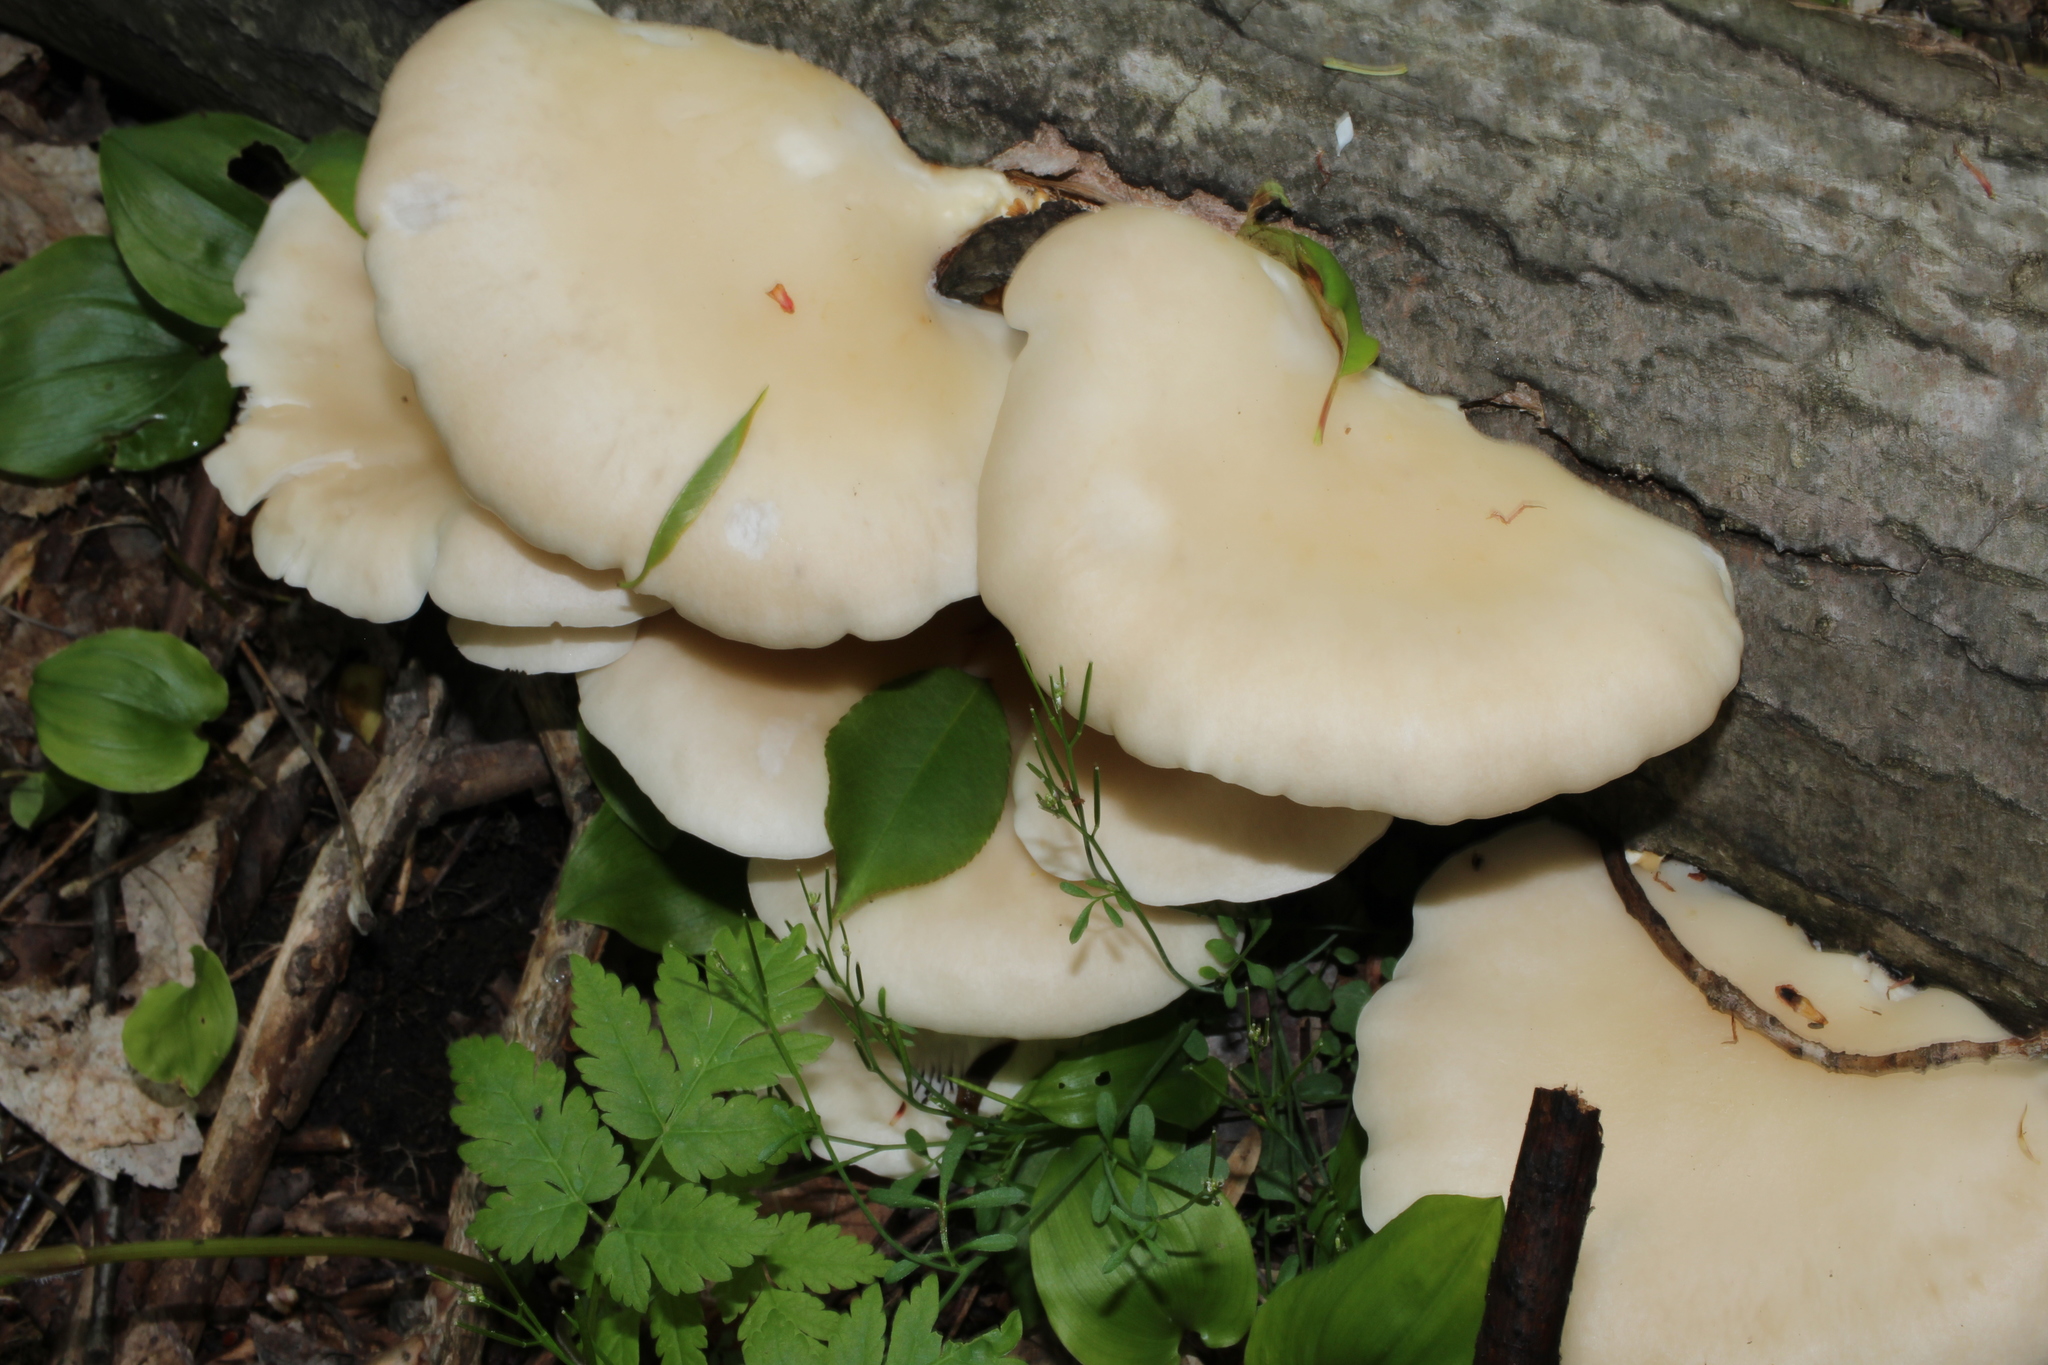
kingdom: Fungi
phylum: Basidiomycota
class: Agaricomycetes
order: Agaricales
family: Pleurotaceae
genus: Pleurotus
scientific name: Pleurotus pulmonarius
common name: Pale oyster
